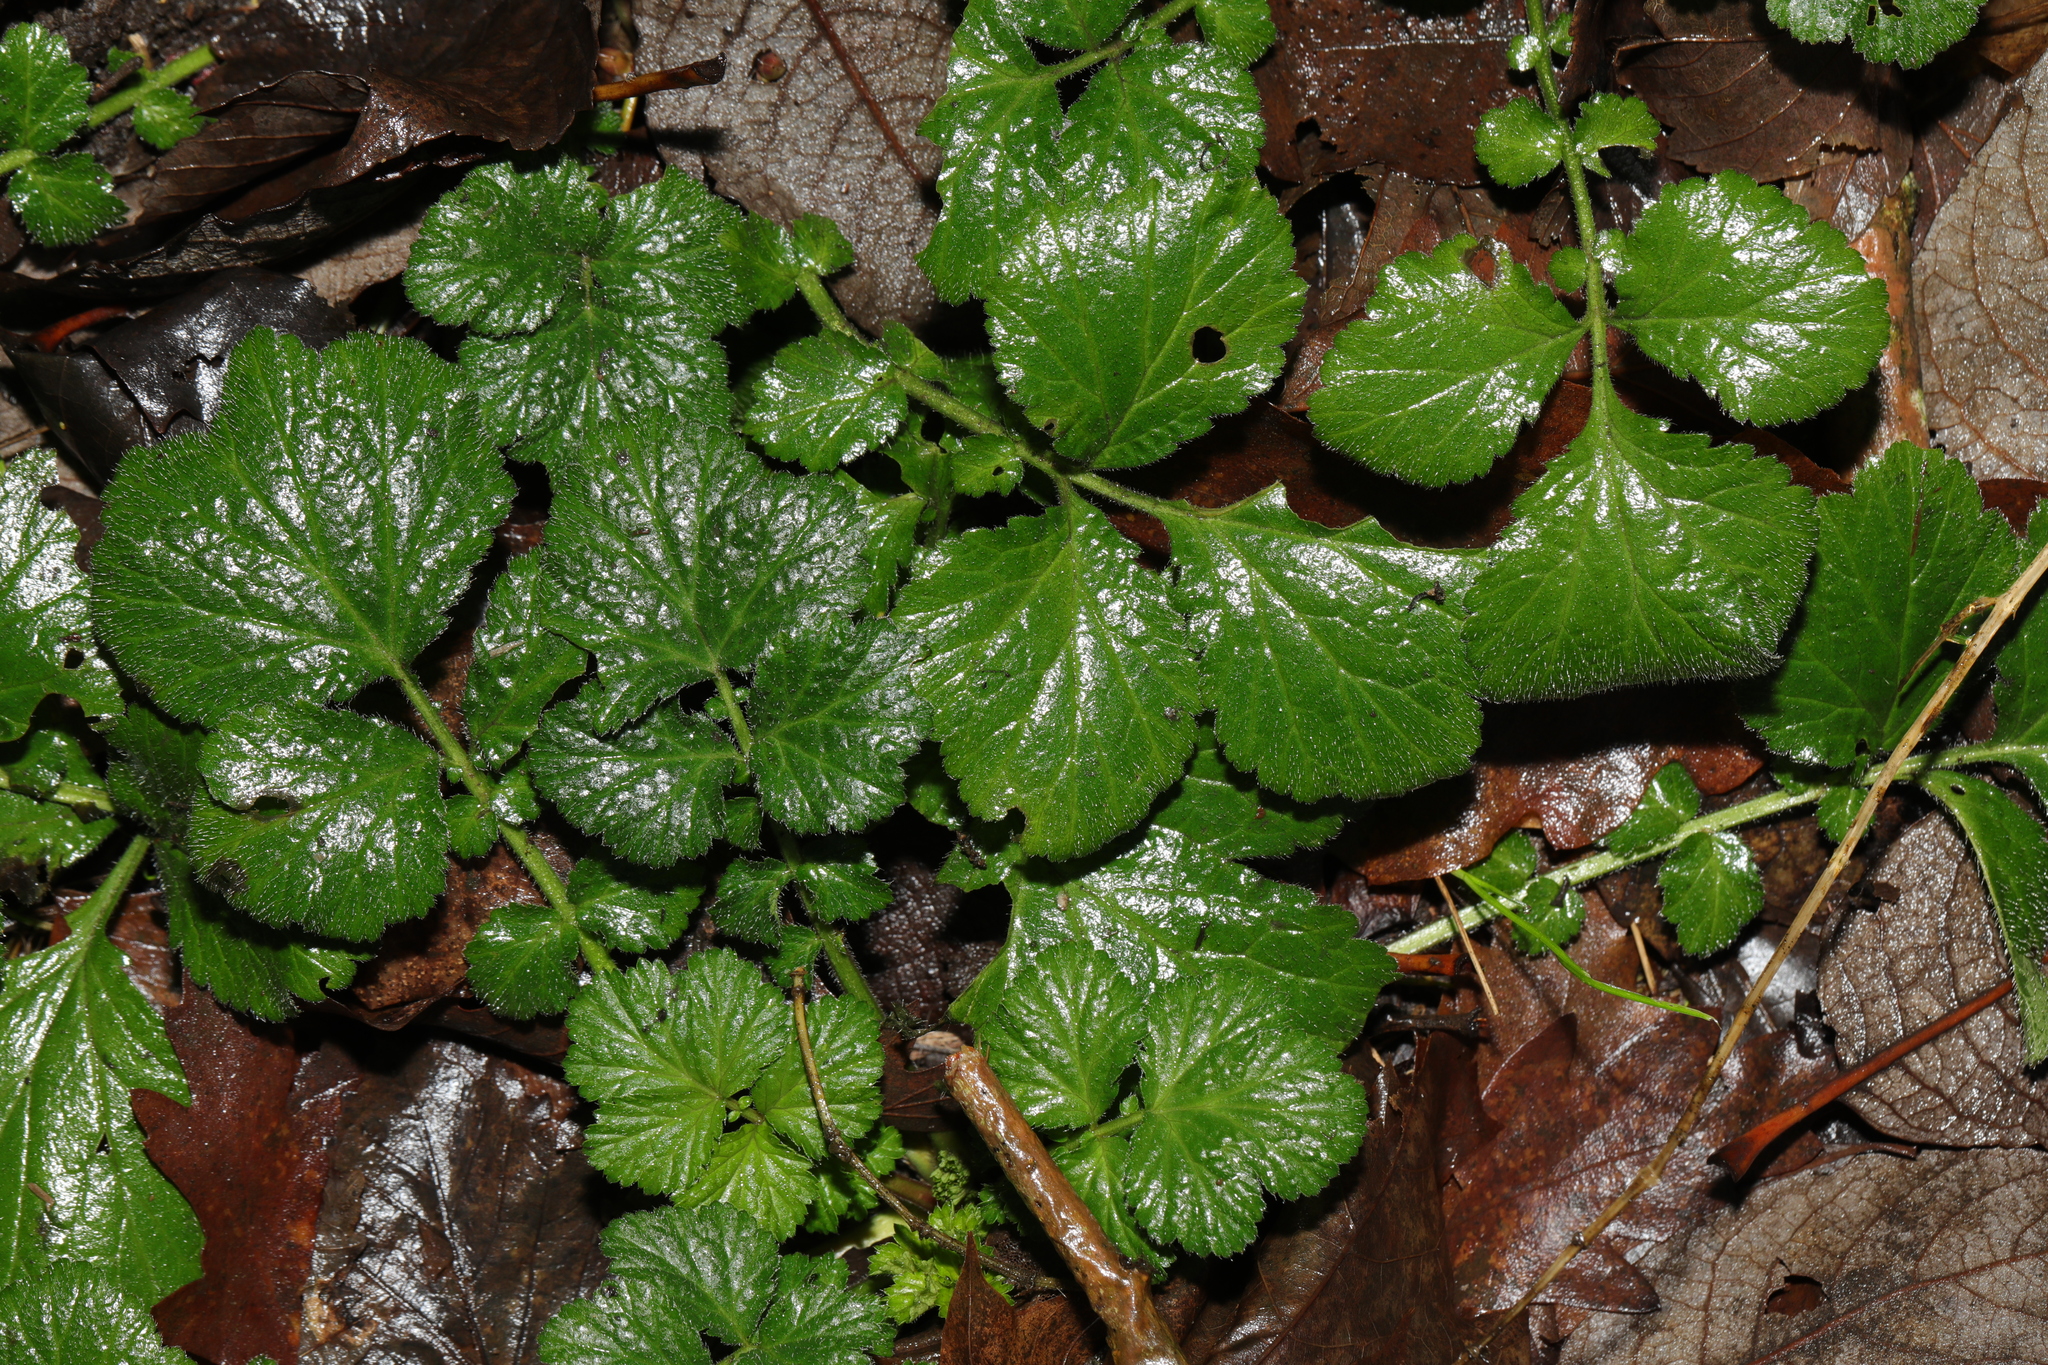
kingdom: Plantae
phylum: Tracheophyta
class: Magnoliopsida
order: Rosales
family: Rosaceae
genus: Geum
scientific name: Geum urbanum
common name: Wood avens
